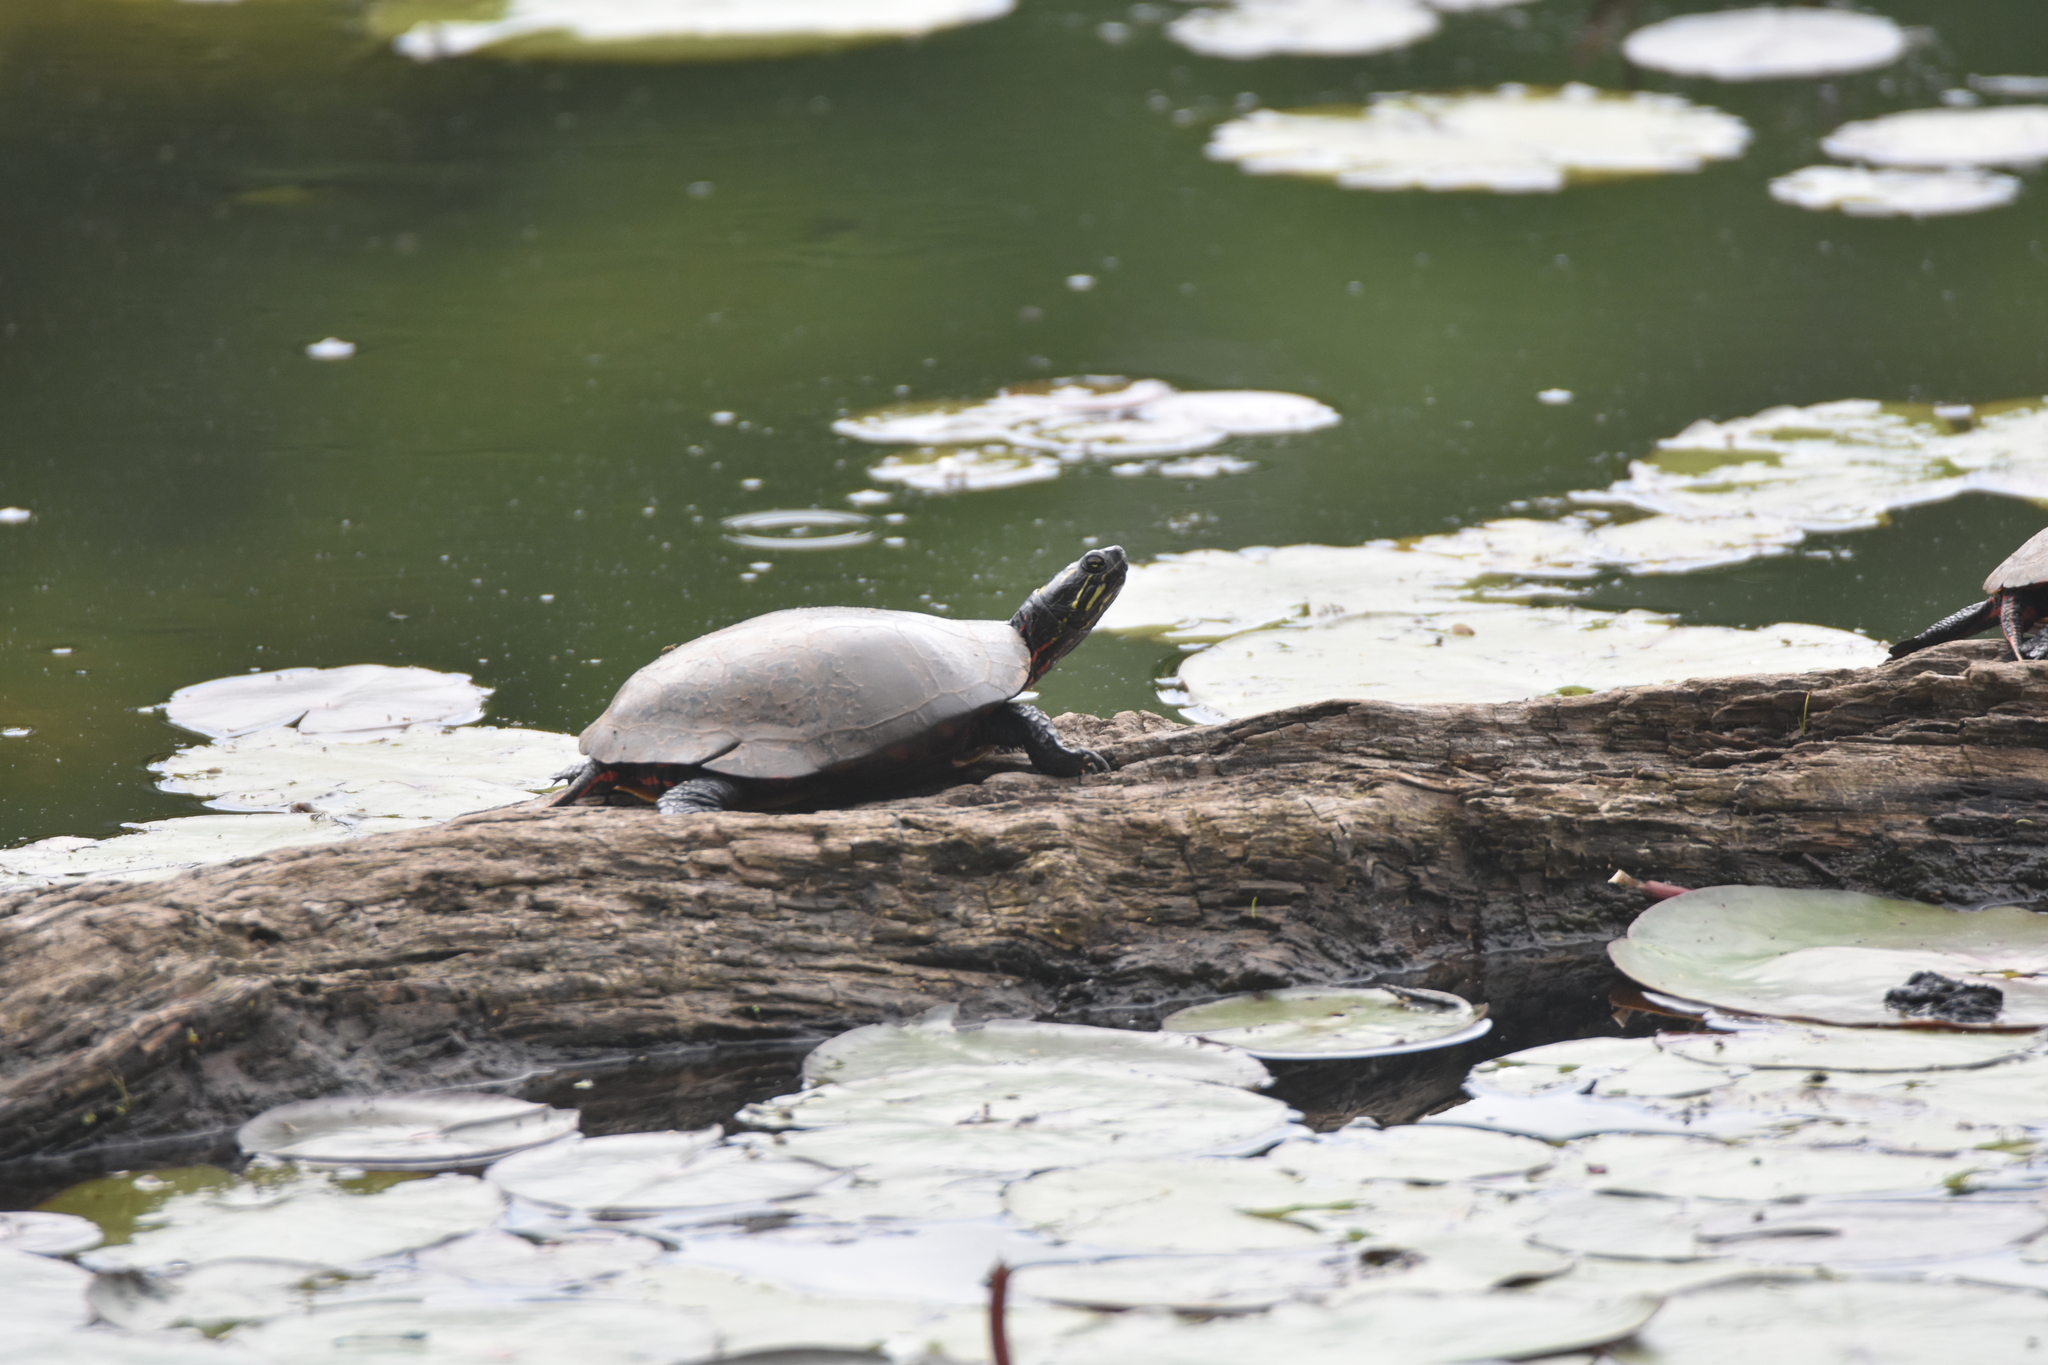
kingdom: Animalia
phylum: Chordata
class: Testudines
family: Emydidae
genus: Chrysemys
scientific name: Chrysemys picta
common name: Painted turtle
